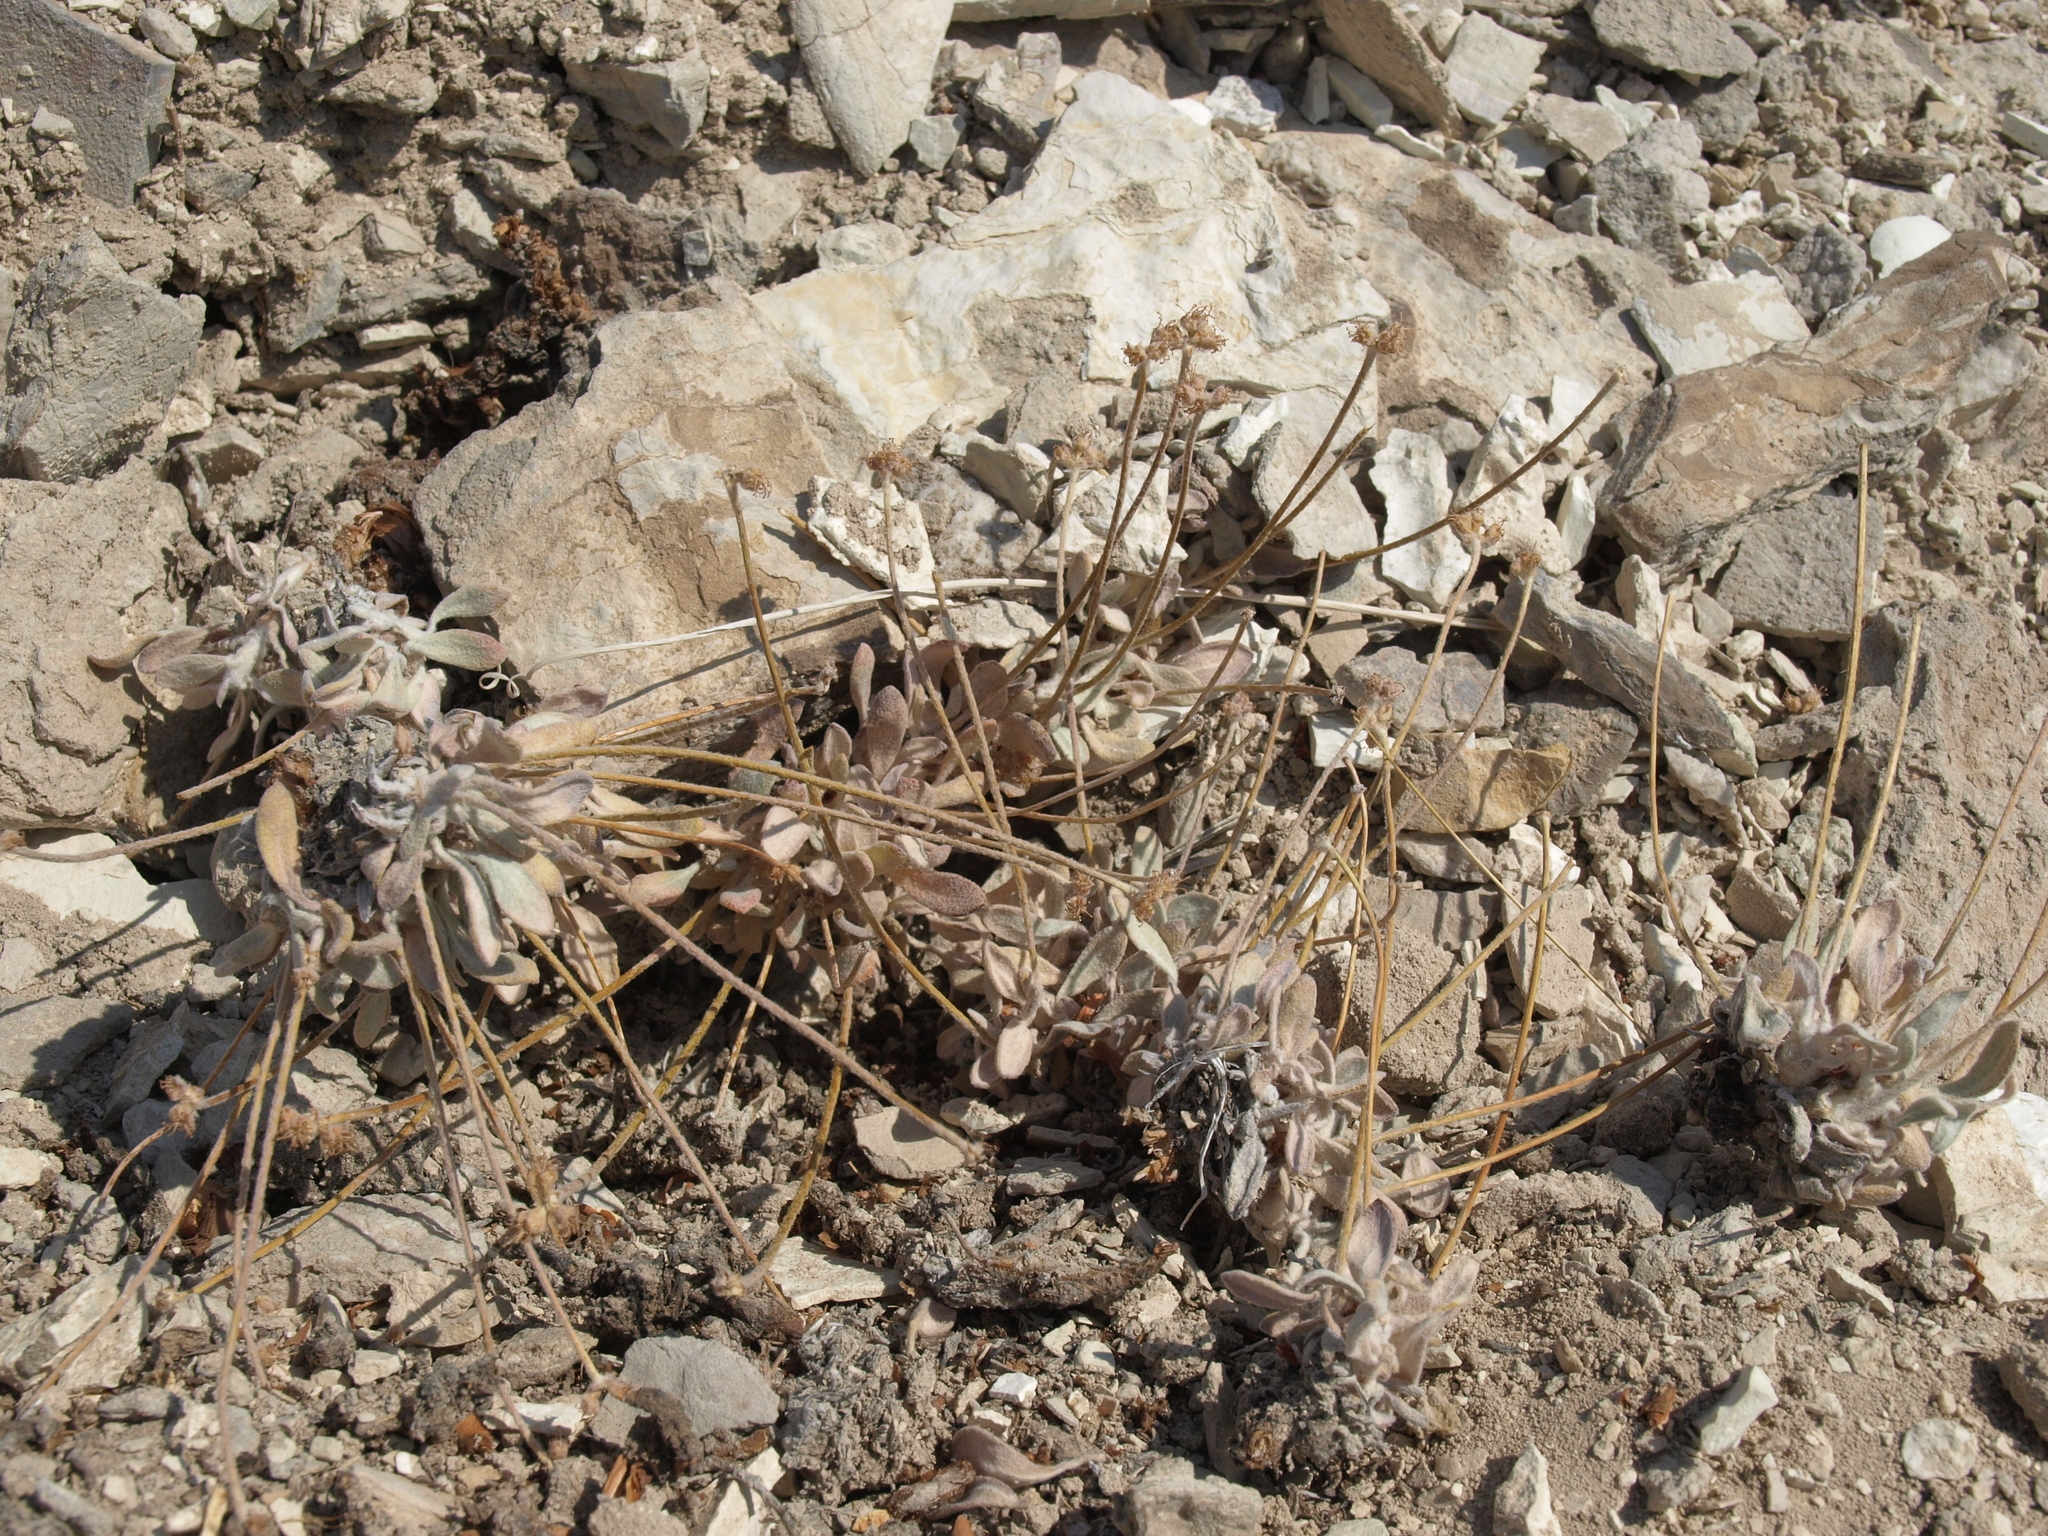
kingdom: Plantae
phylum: Tracheophyta
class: Magnoliopsida
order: Caryophyllales
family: Polygonaceae
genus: Eriogonum
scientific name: Eriogonum tiehmii
